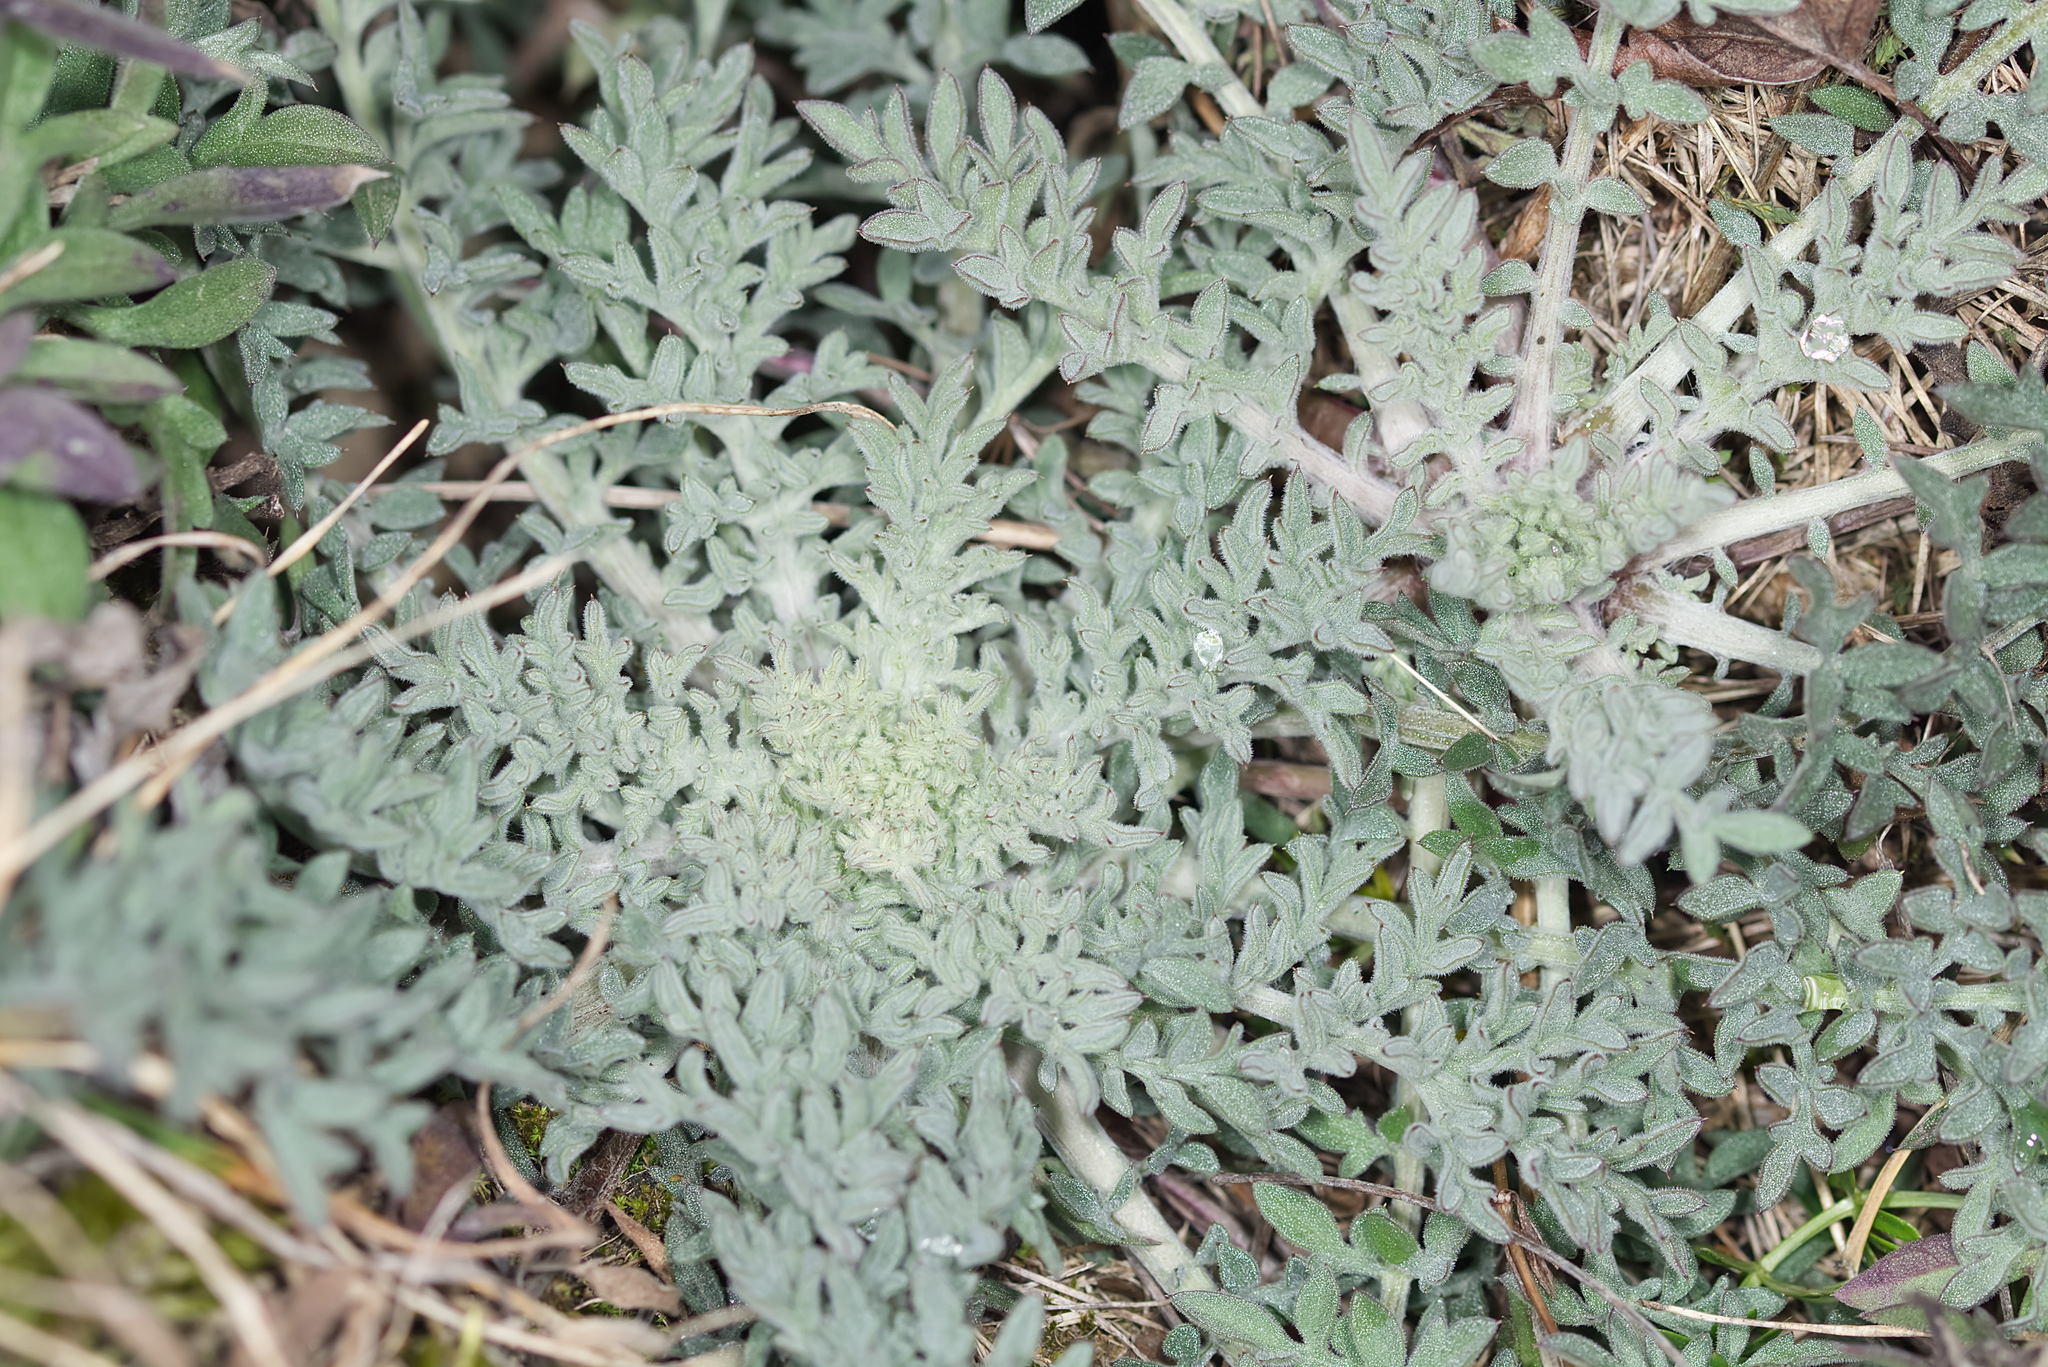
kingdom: Plantae
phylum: Tracheophyta
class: Magnoliopsida
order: Asterales
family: Asteraceae
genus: Centaurea
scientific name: Centaurea stoebe
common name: Spotted knapweed
